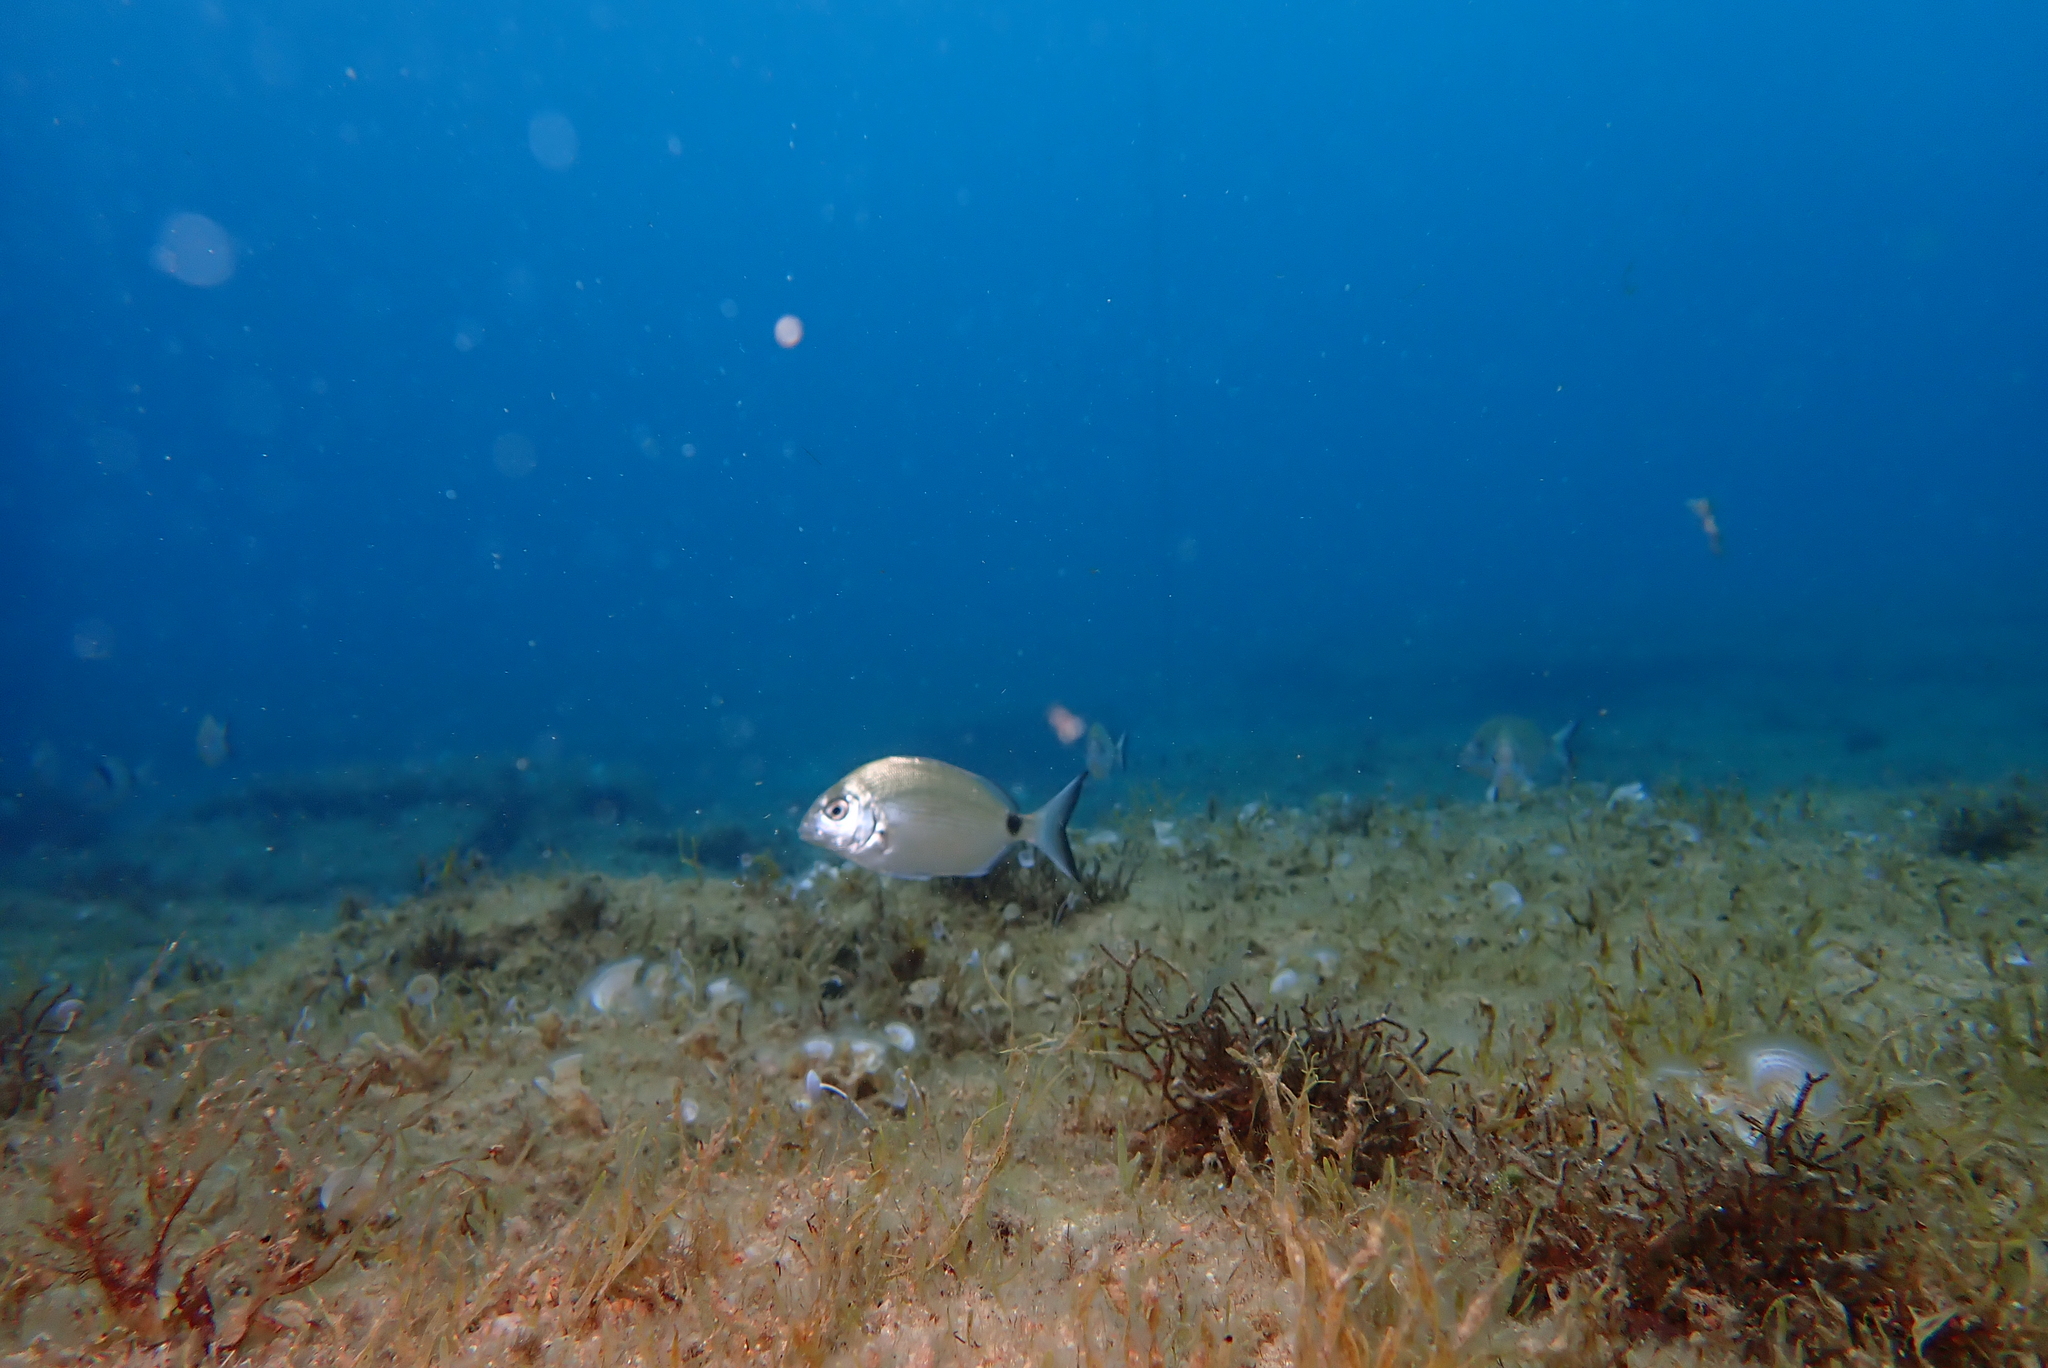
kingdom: Animalia
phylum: Chordata
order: Perciformes
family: Sparidae
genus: Diplodus
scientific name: Diplodus sargus
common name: White seabream
